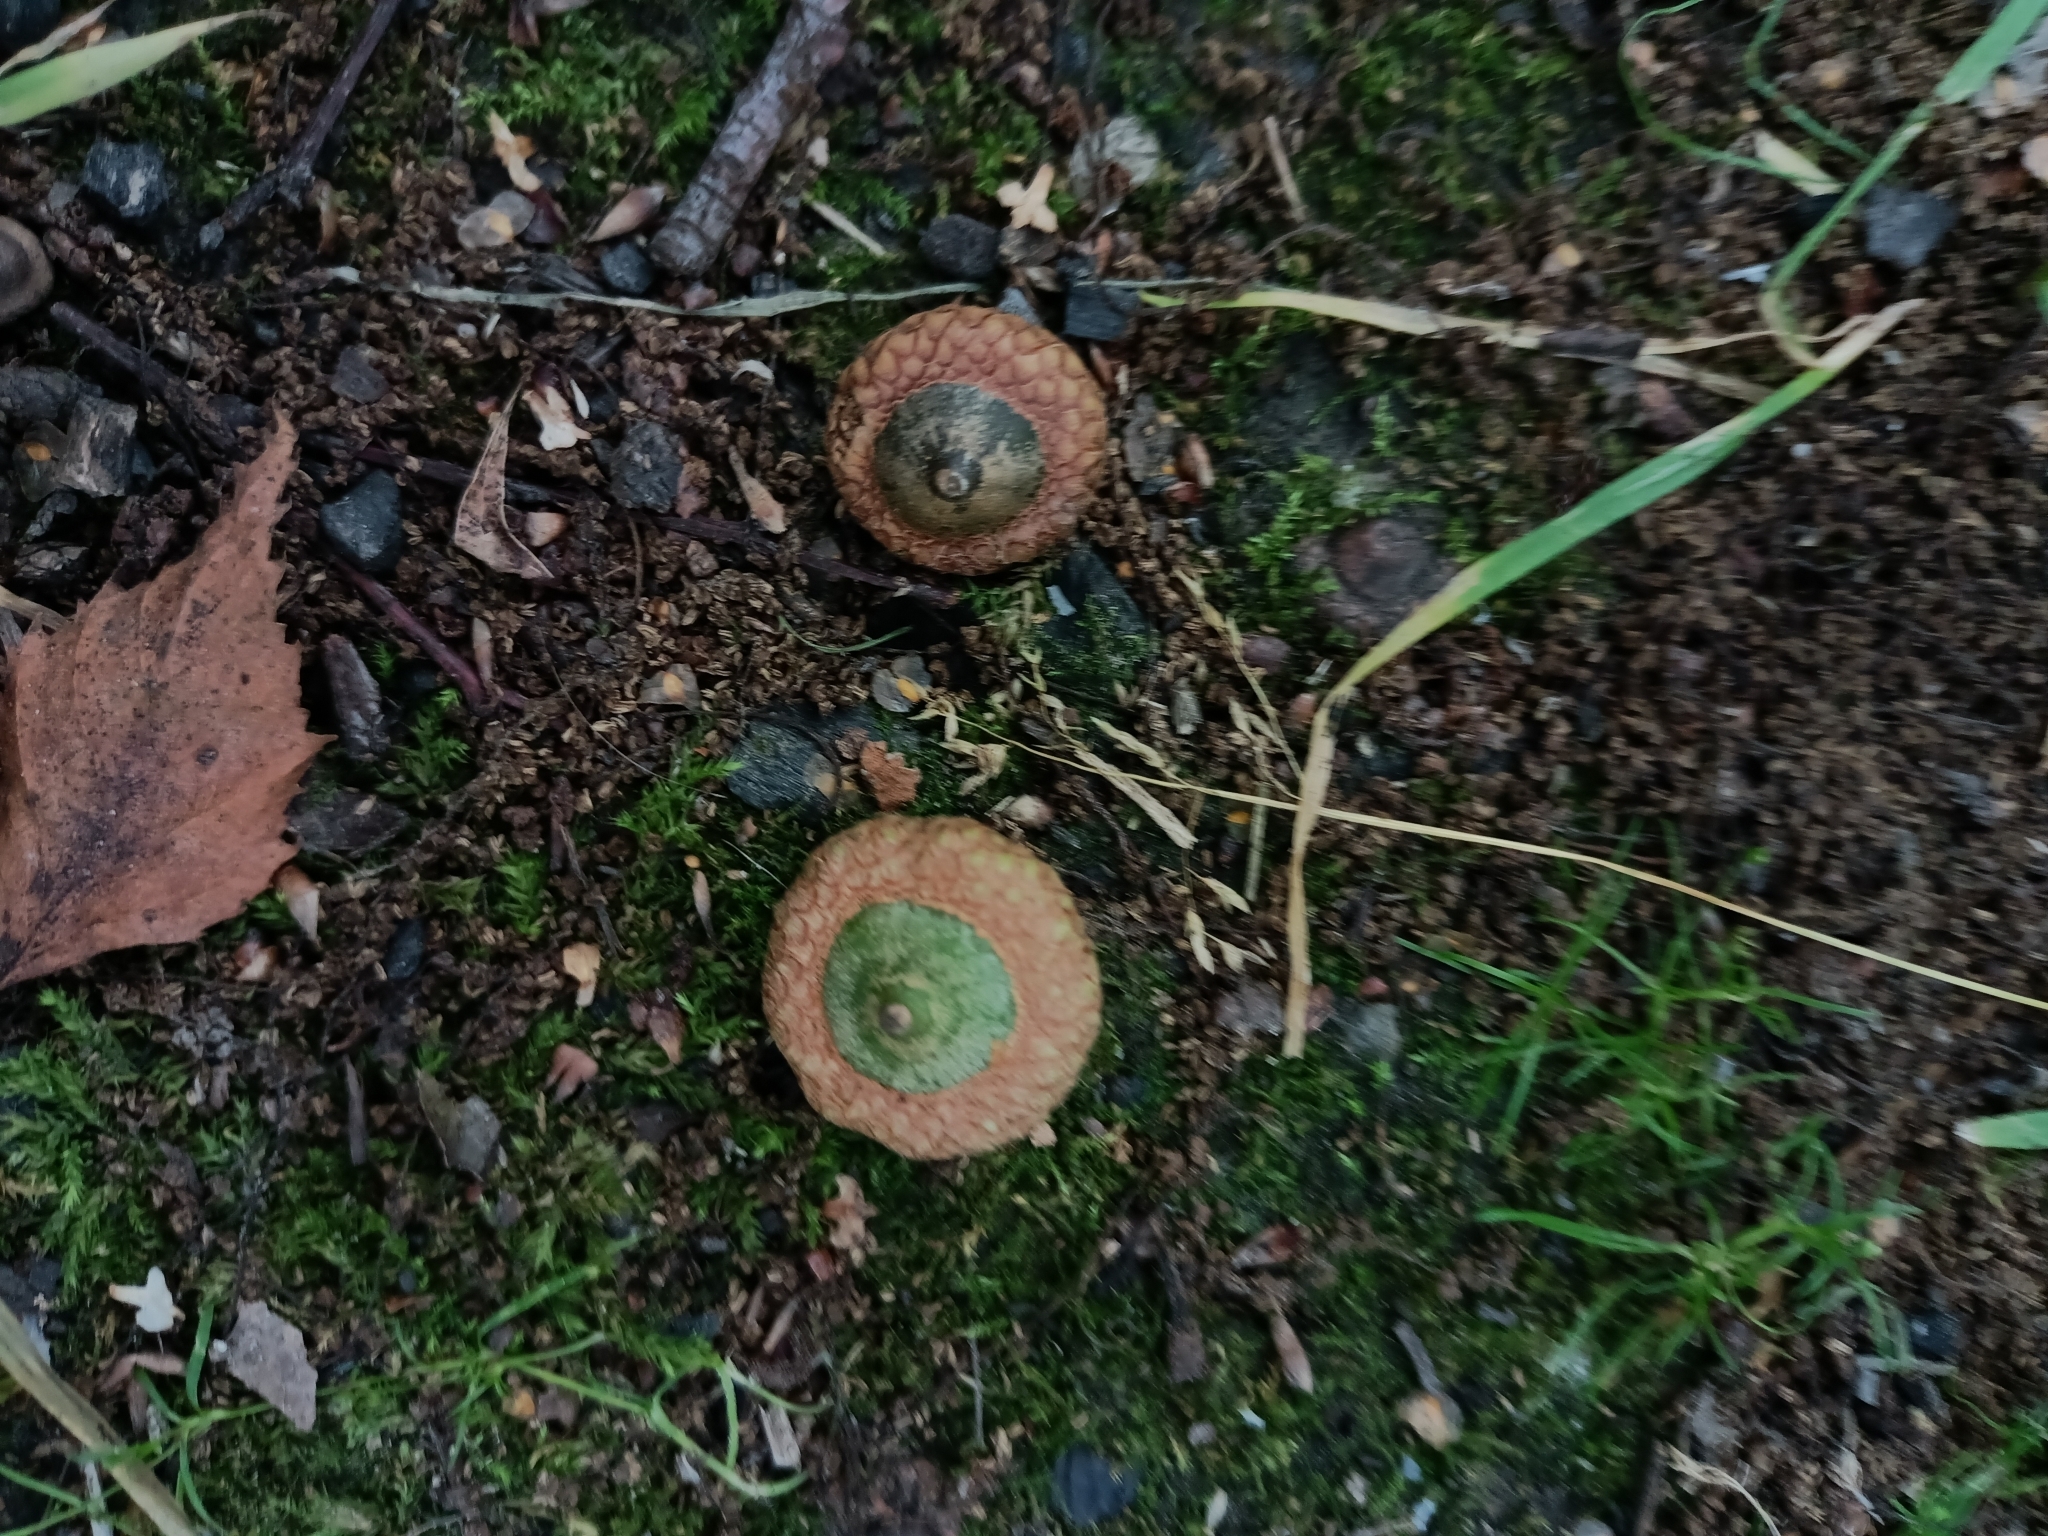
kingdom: Plantae
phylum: Tracheophyta
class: Magnoliopsida
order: Fagales
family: Fagaceae
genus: Quercus
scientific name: Quercus rubra
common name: Red oak
